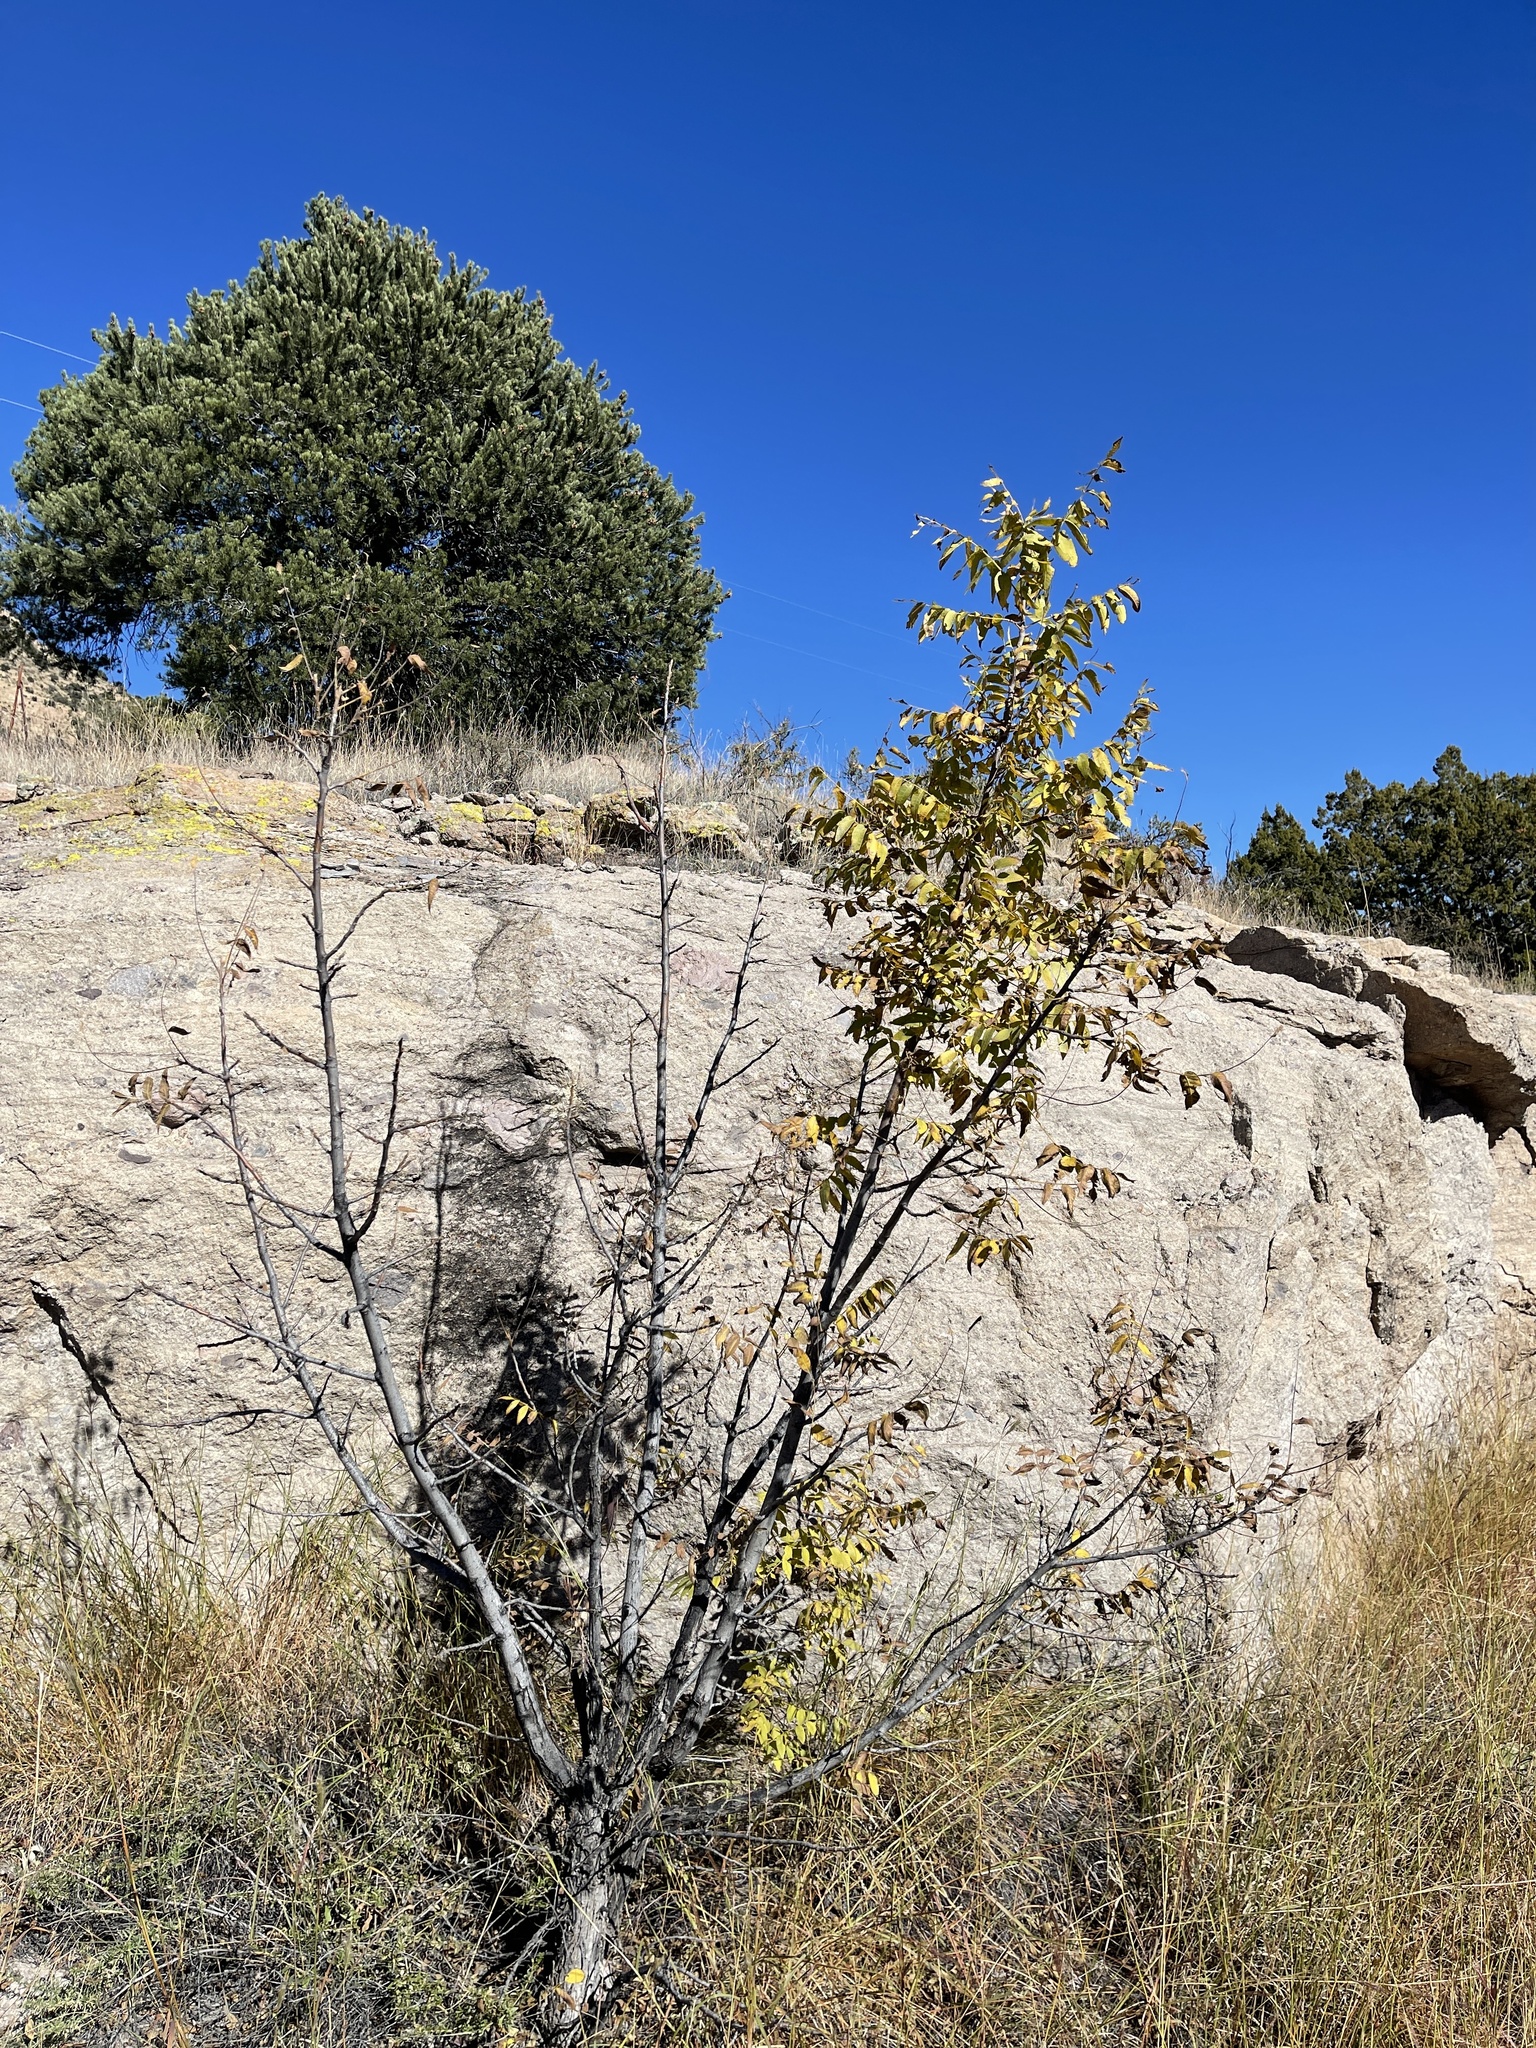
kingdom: Plantae
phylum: Tracheophyta
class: Magnoliopsida
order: Fagales
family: Juglandaceae
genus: Juglans
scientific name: Juglans major
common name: Arizona walnut
